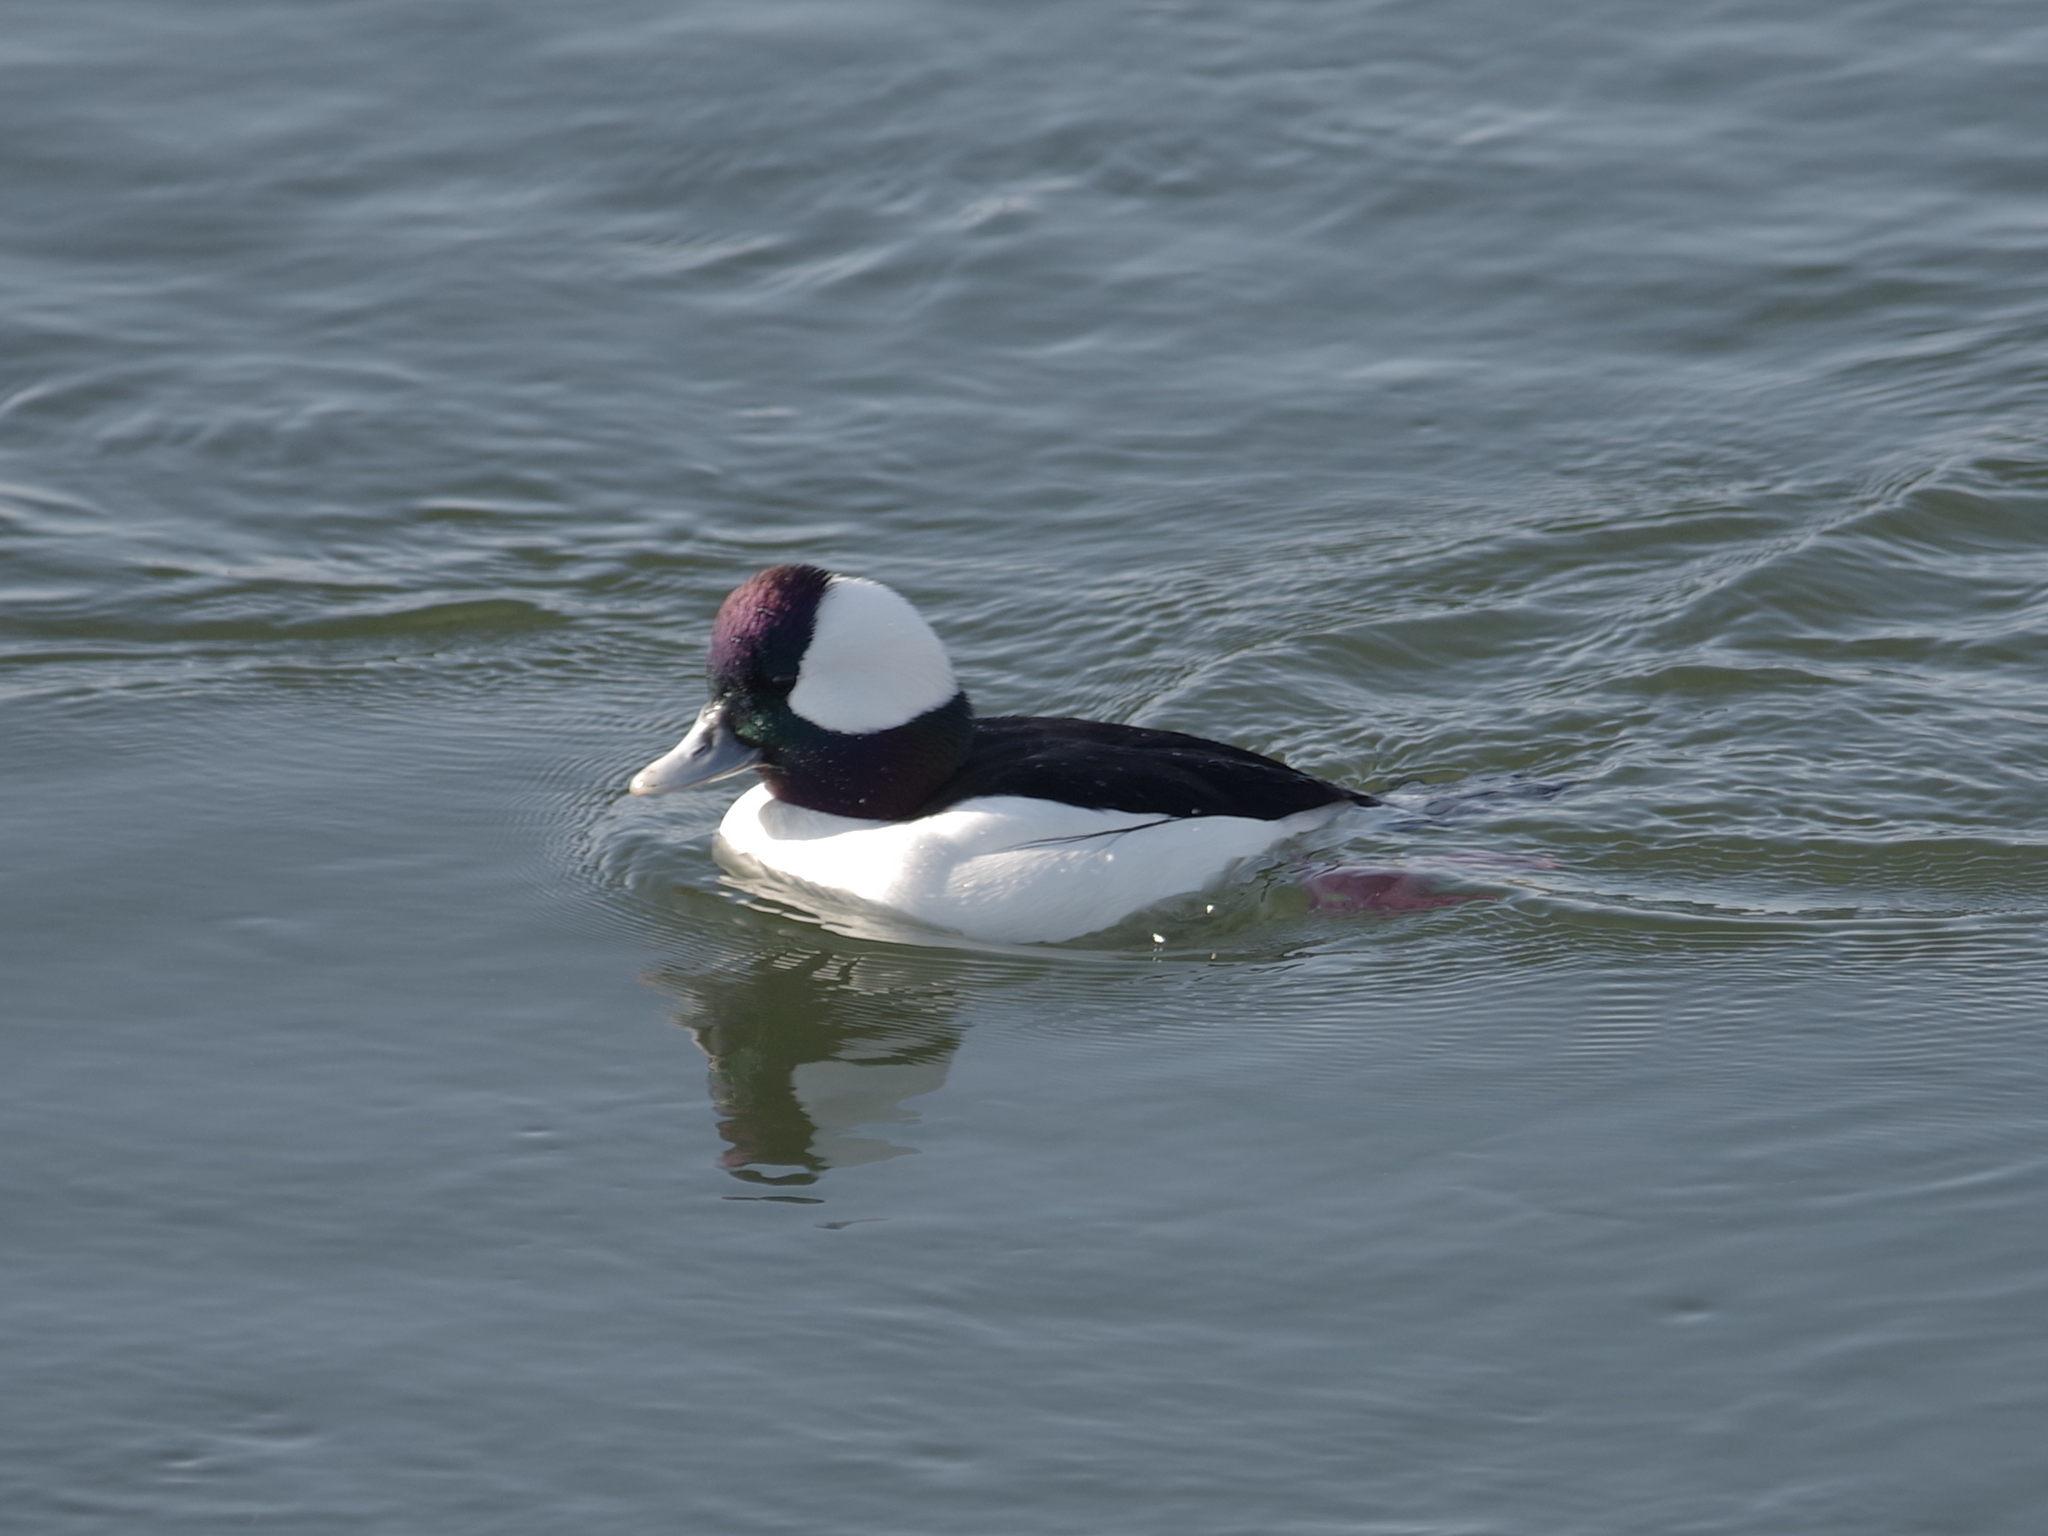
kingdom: Animalia
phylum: Chordata
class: Aves
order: Anseriformes
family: Anatidae
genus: Bucephala
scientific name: Bucephala albeola
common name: Bufflehead
